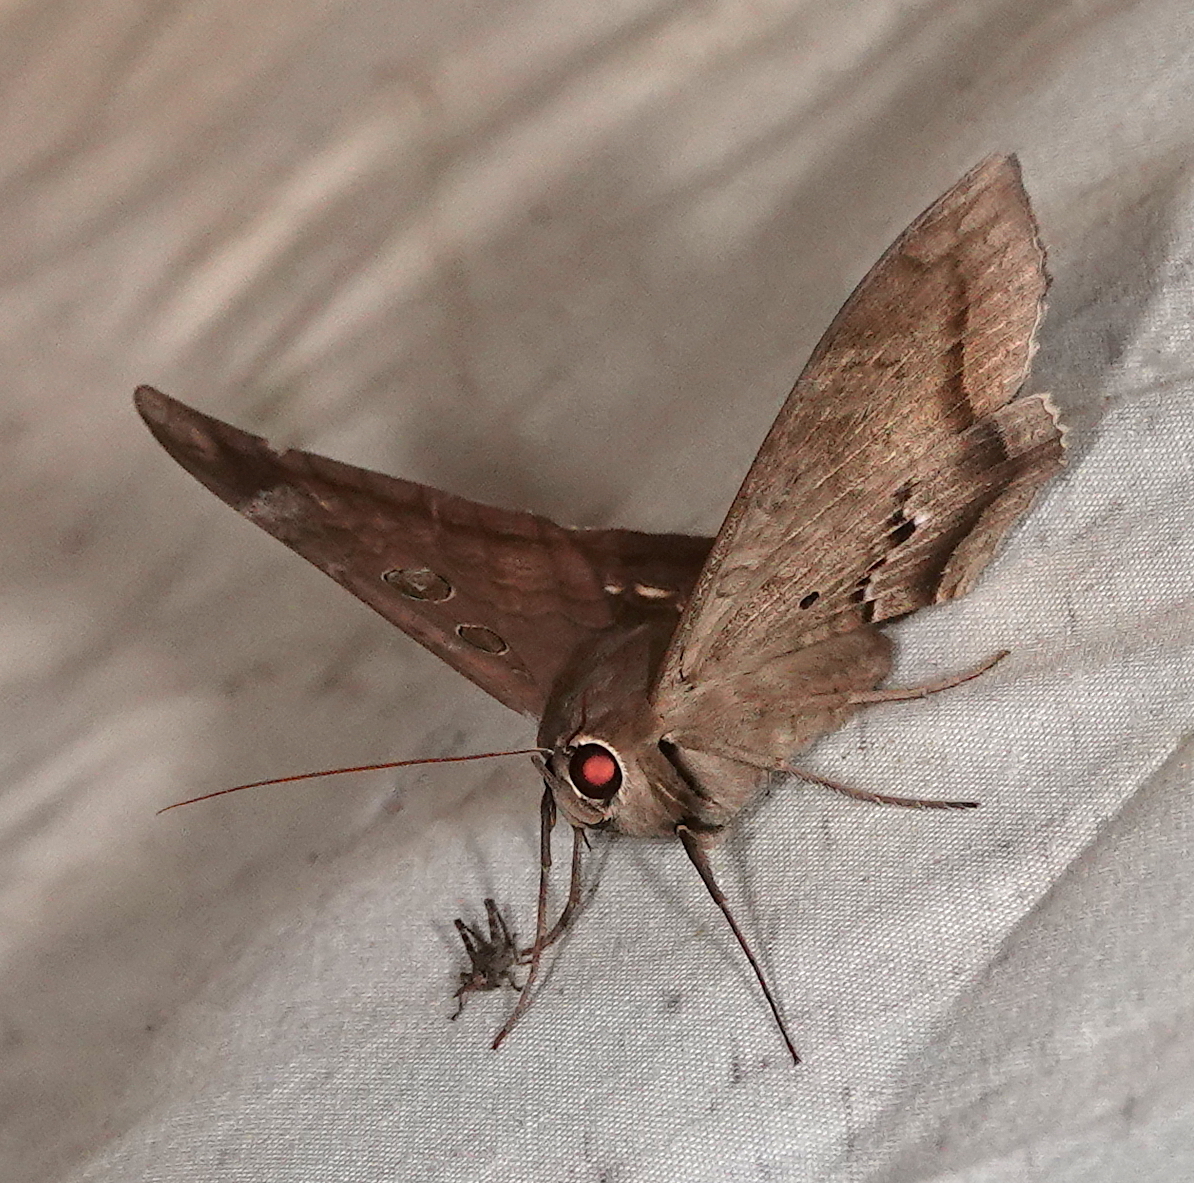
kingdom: Animalia
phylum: Arthropoda
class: Insecta
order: Lepidoptera
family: Erebidae
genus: Cyclopis
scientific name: Cyclopis caecutiens
